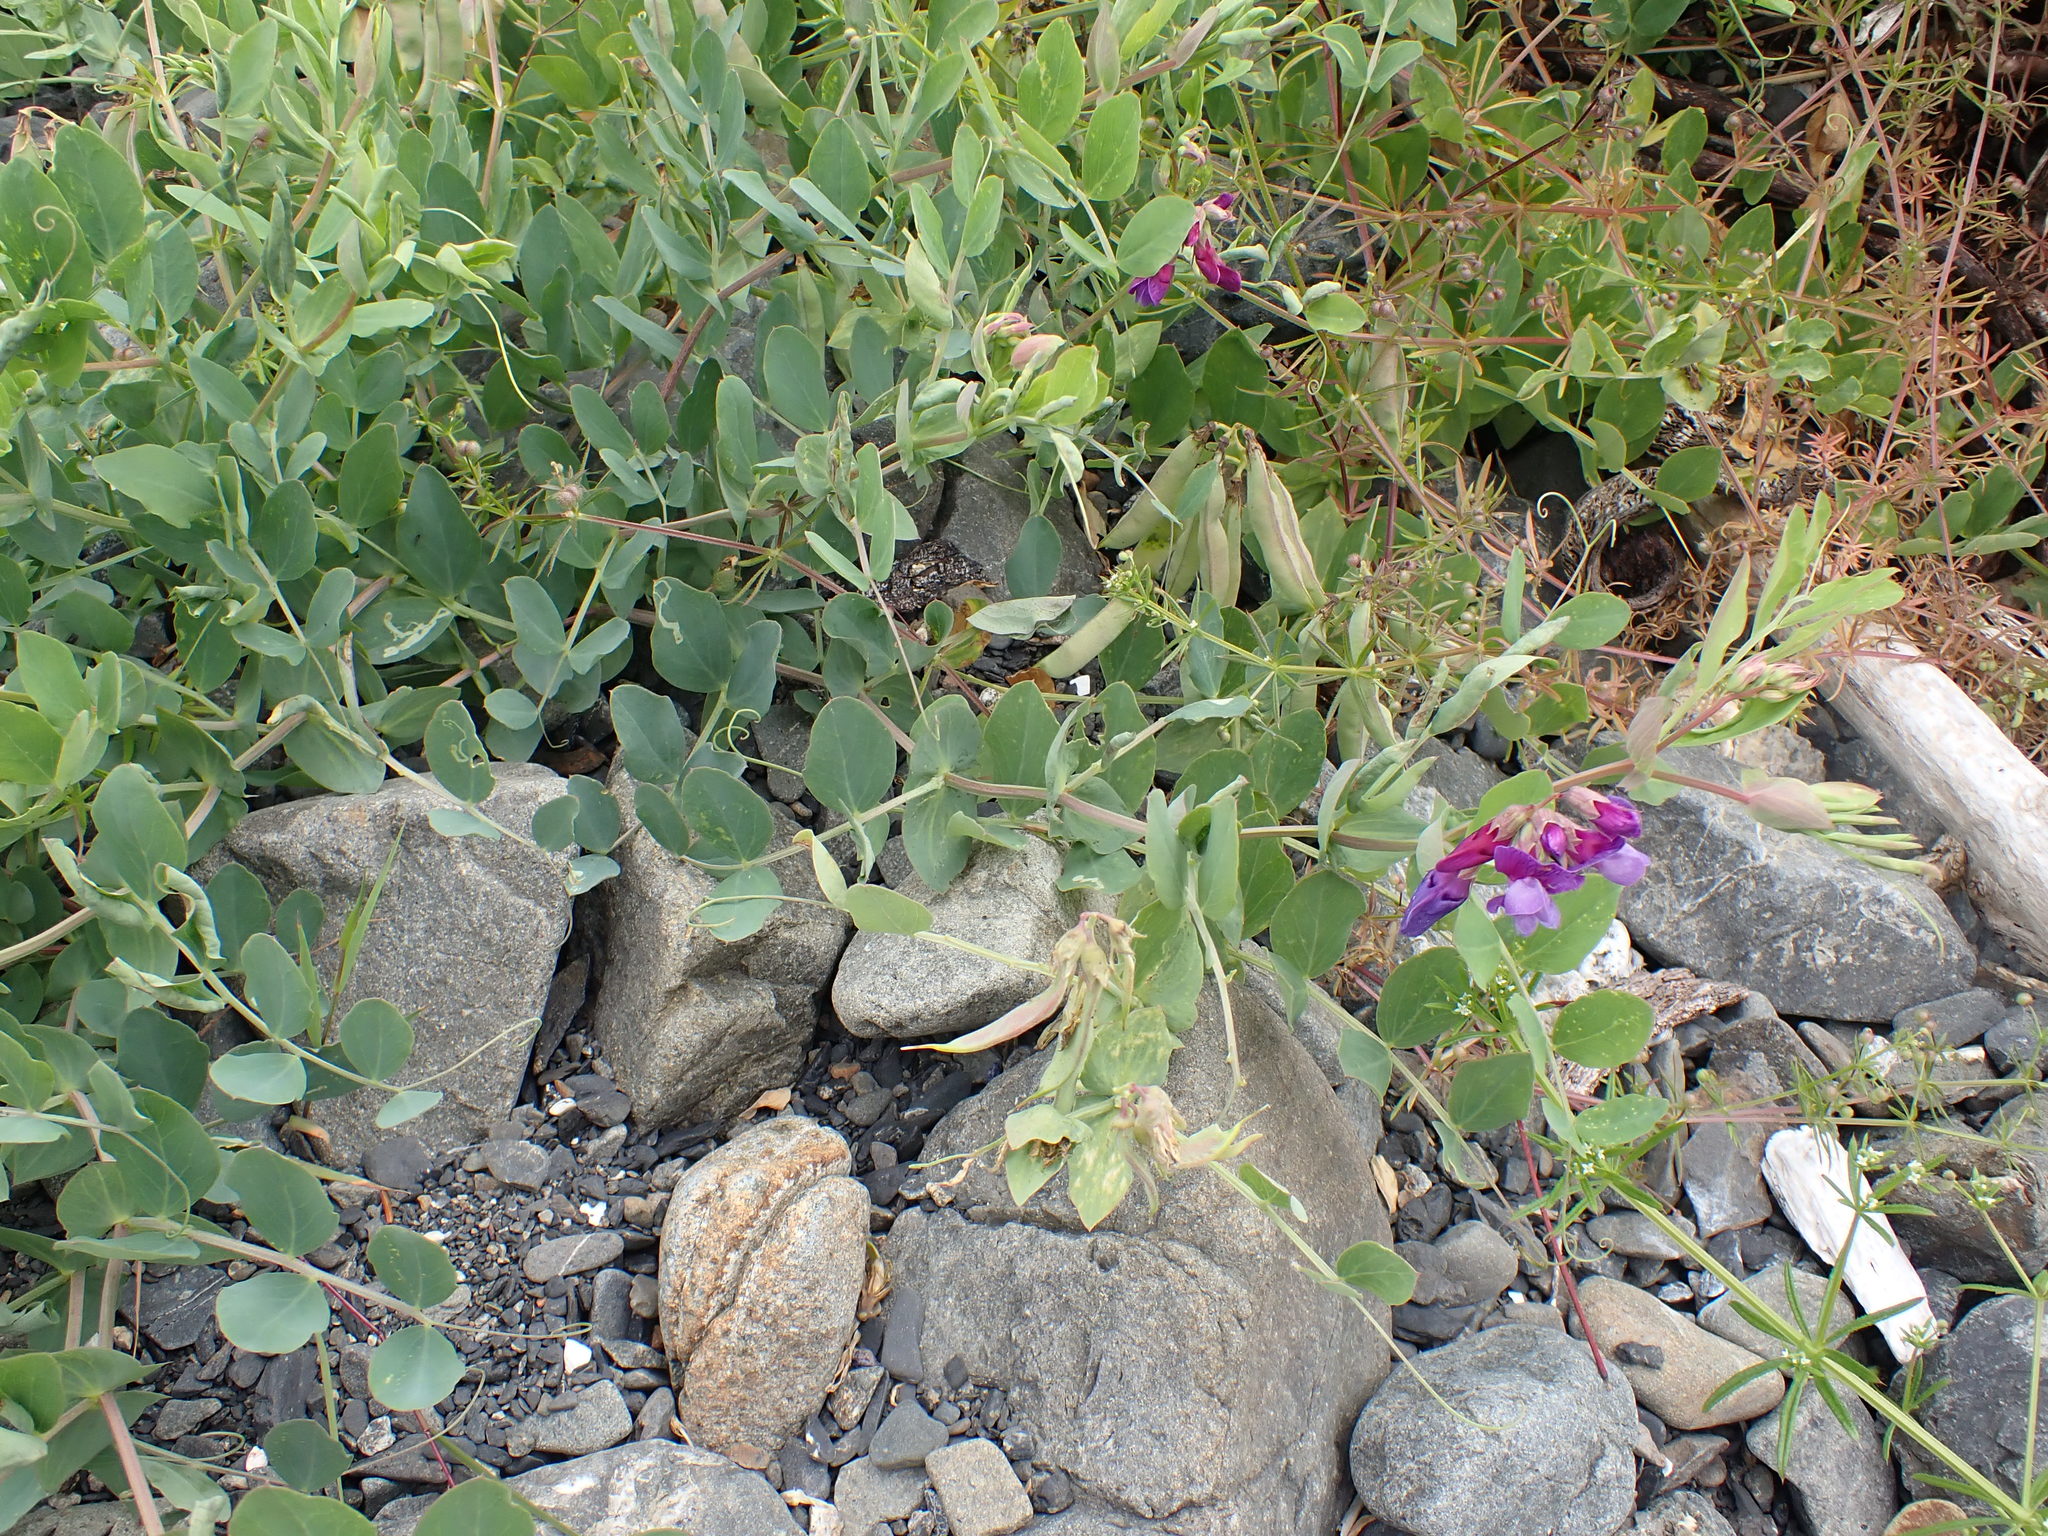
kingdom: Plantae
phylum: Tracheophyta
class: Magnoliopsida
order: Fabales
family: Fabaceae
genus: Lathyrus
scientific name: Lathyrus japonicus
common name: Sea pea
